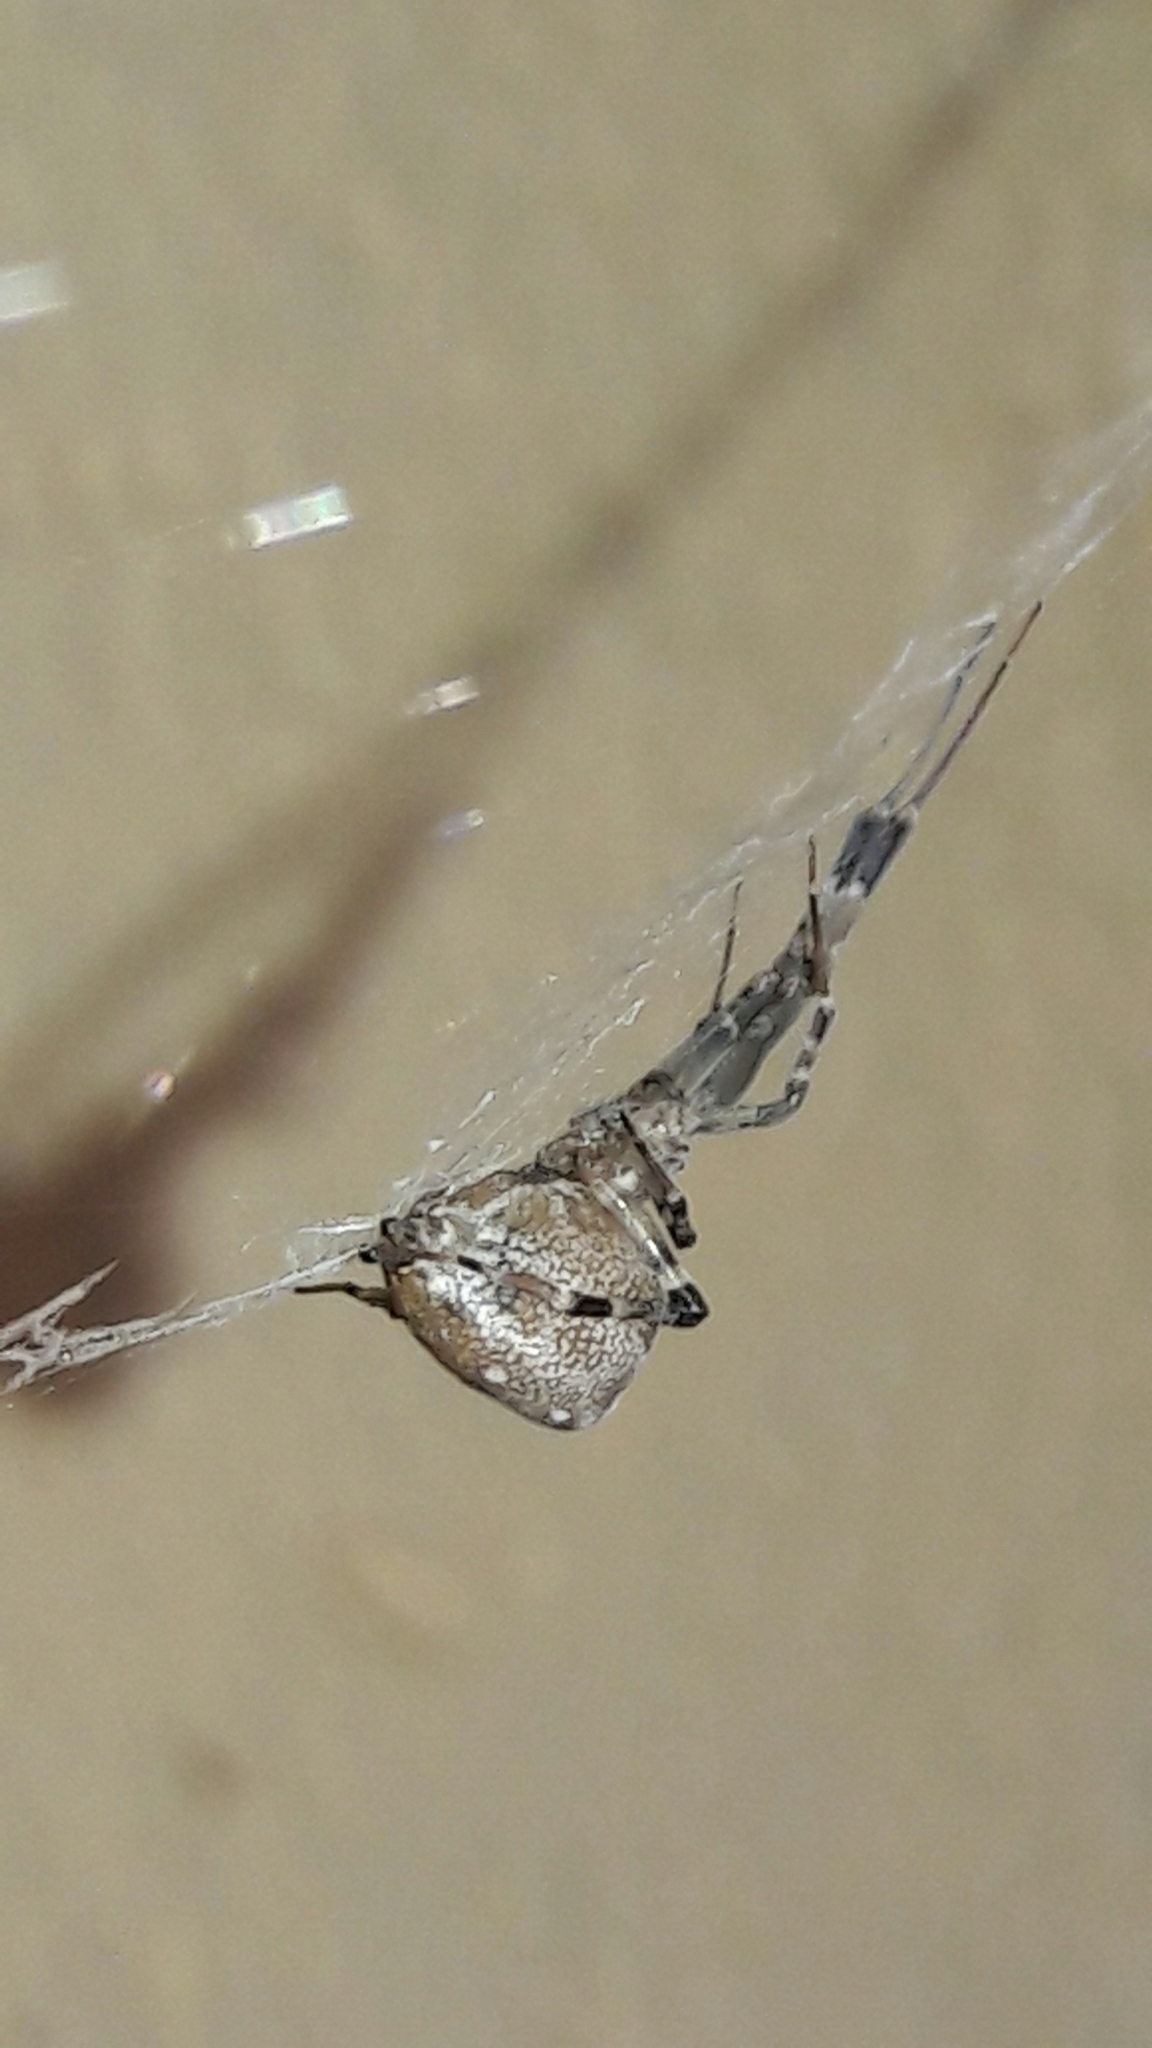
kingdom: Animalia
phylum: Arthropoda
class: Arachnida
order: Araneae
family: Uloboridae
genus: Zosis
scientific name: Zosis geniculata
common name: Hackled orb weavers
